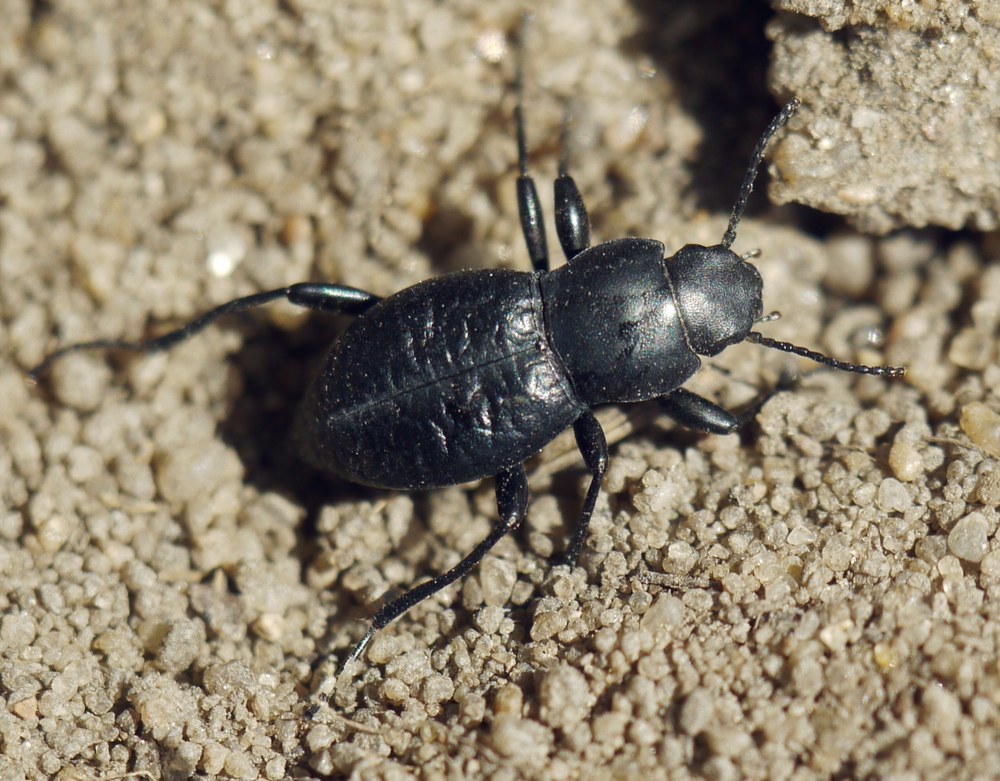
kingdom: Animalia
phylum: Arthropoda
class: Insecta
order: Coleoptera
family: Tenebrionidae
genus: Anatolica
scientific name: Anatolica abbreviata
